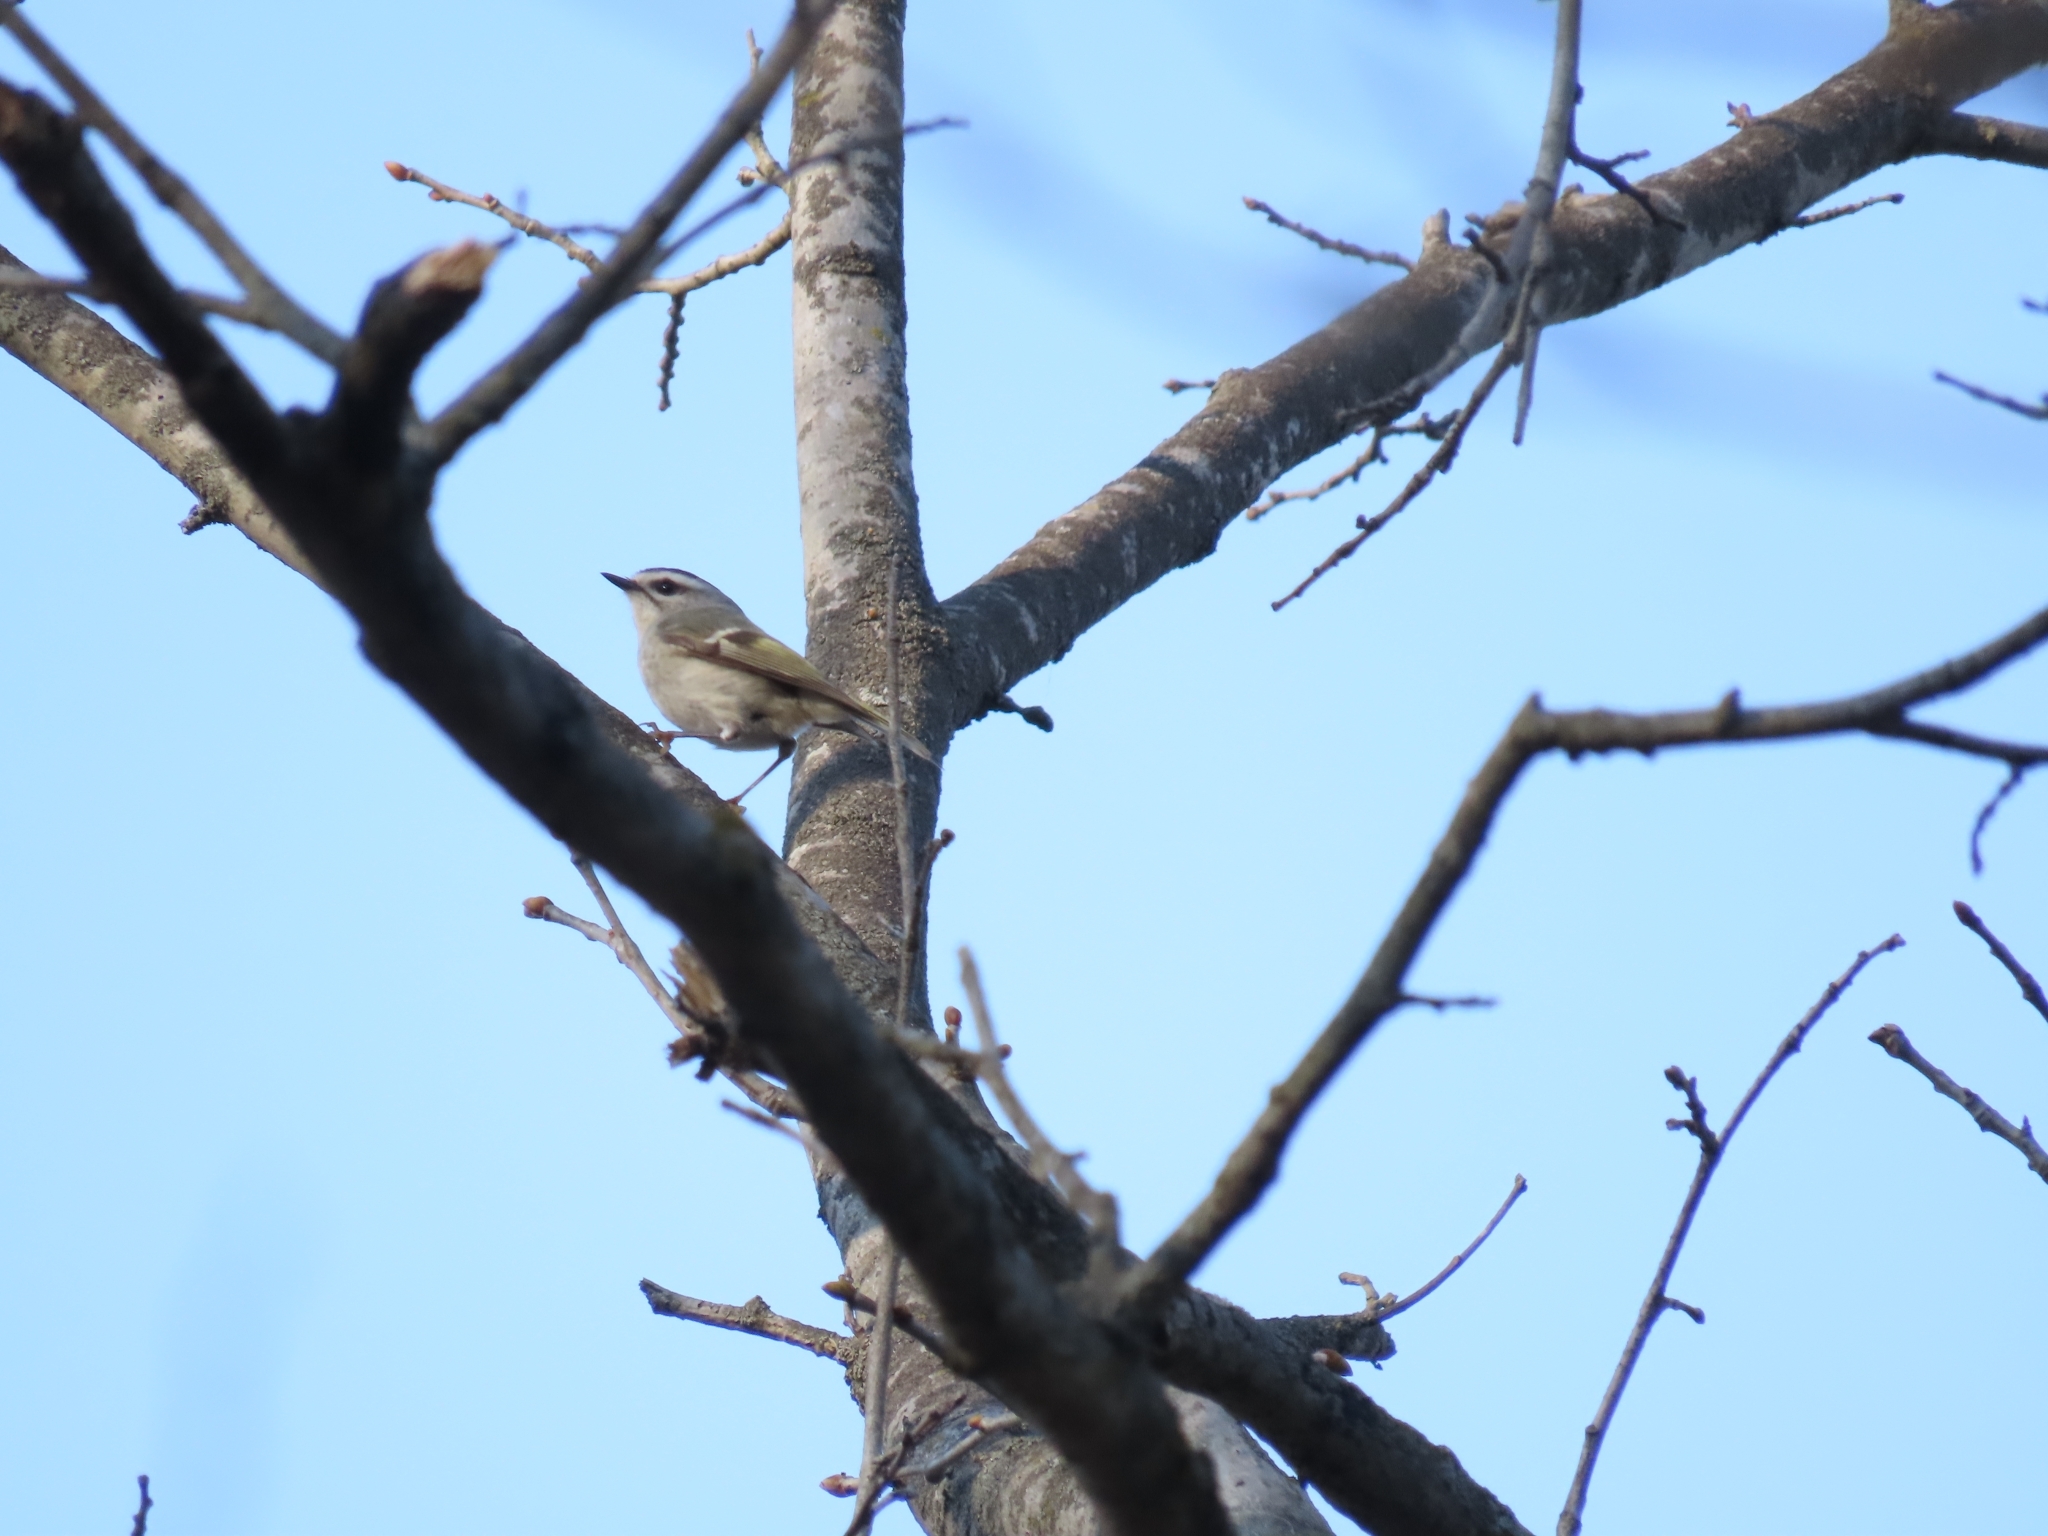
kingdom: Animalia
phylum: Chordata
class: Aves
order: Passeriformes
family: Regulidae
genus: Regulus
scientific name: Regulus satrapa
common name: Golden-crowned kinglet
